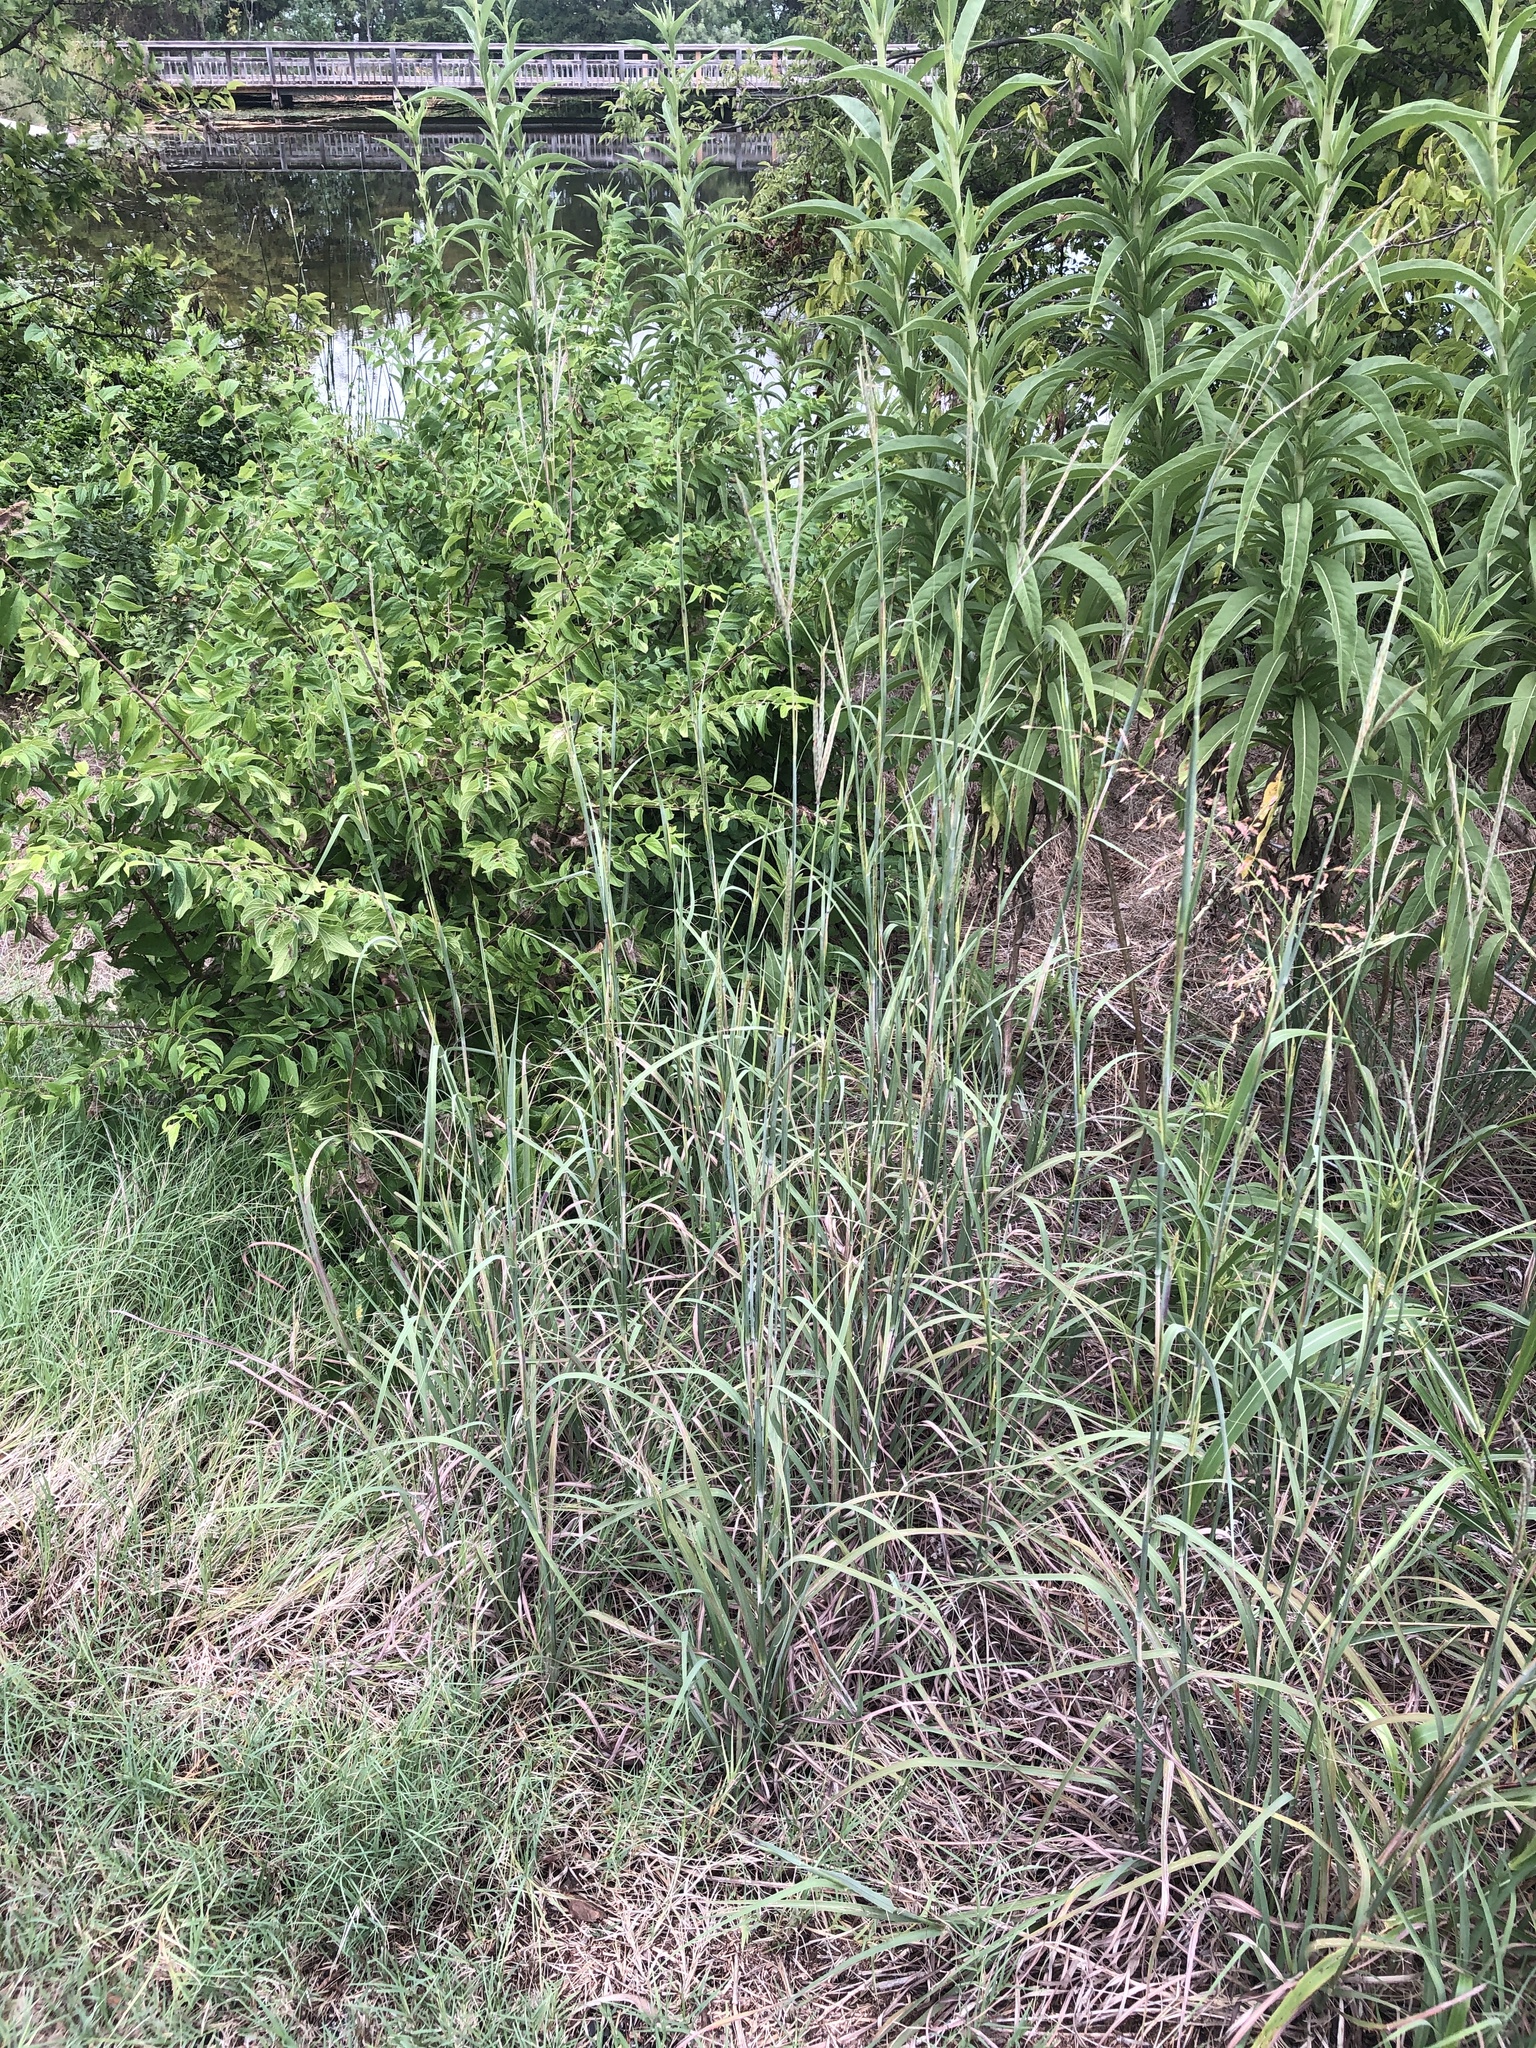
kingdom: Plantae
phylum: Tracheophyta
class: Liliopsida
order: Poales
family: Poaceae
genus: Andropogon
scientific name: Andropogon gerardi
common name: Big bluestem
